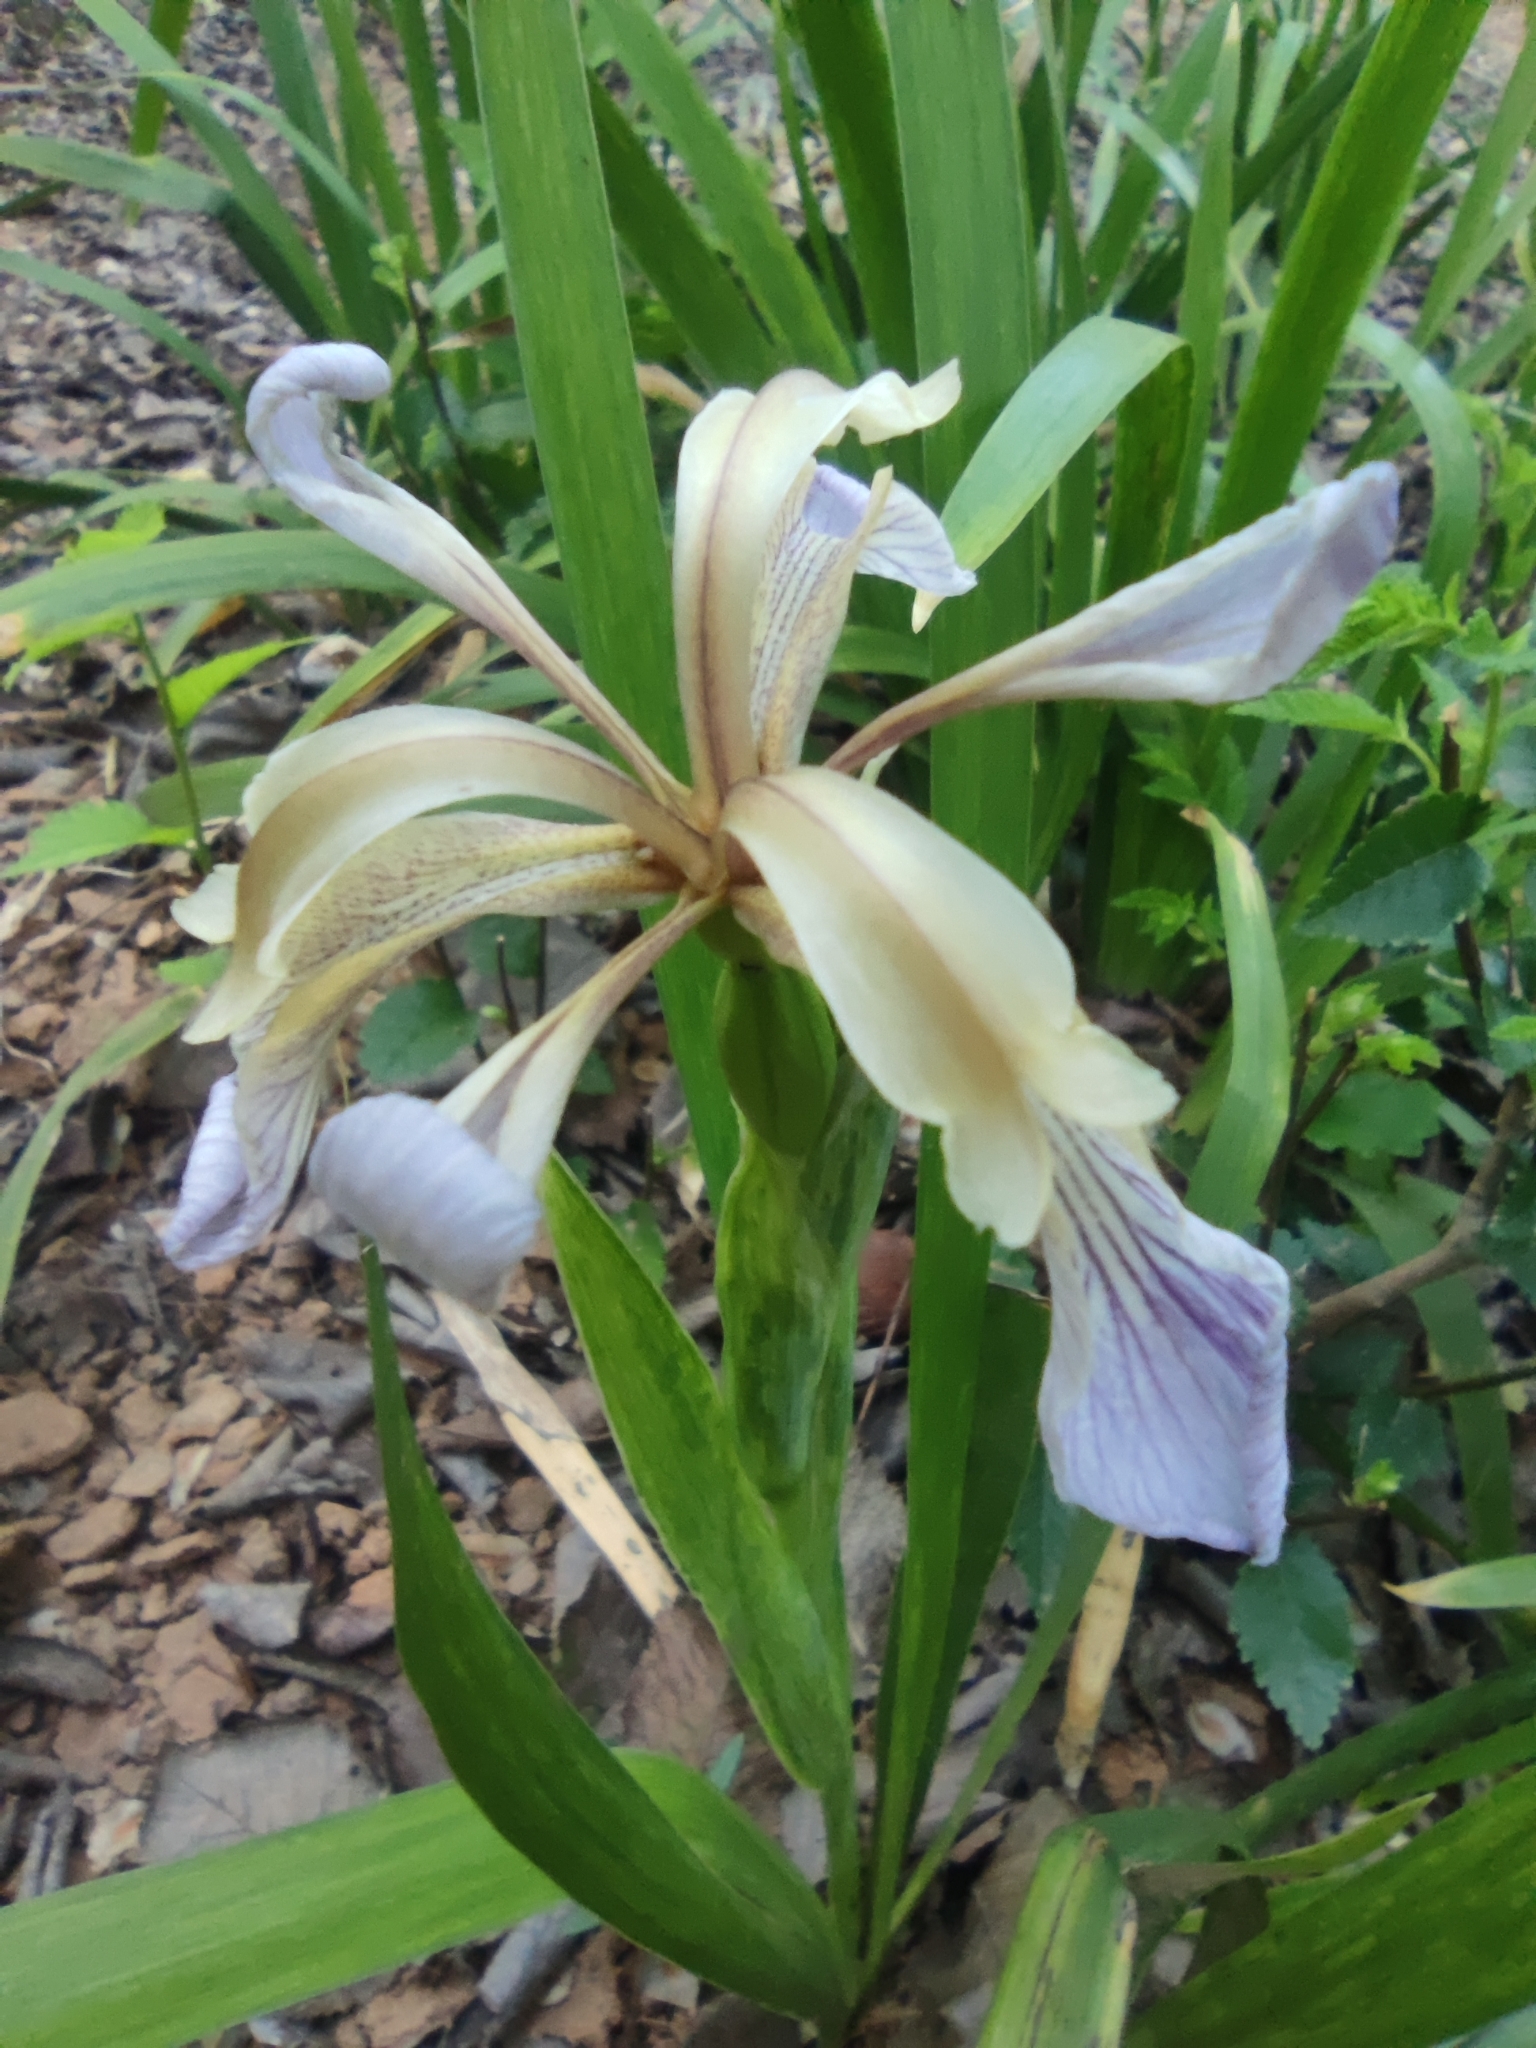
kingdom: Plantae
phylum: Tracheophyta
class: Liliopsida
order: Asparagales
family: Iridaceae
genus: Iris
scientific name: Iris foetidissima
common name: Stinking iris
